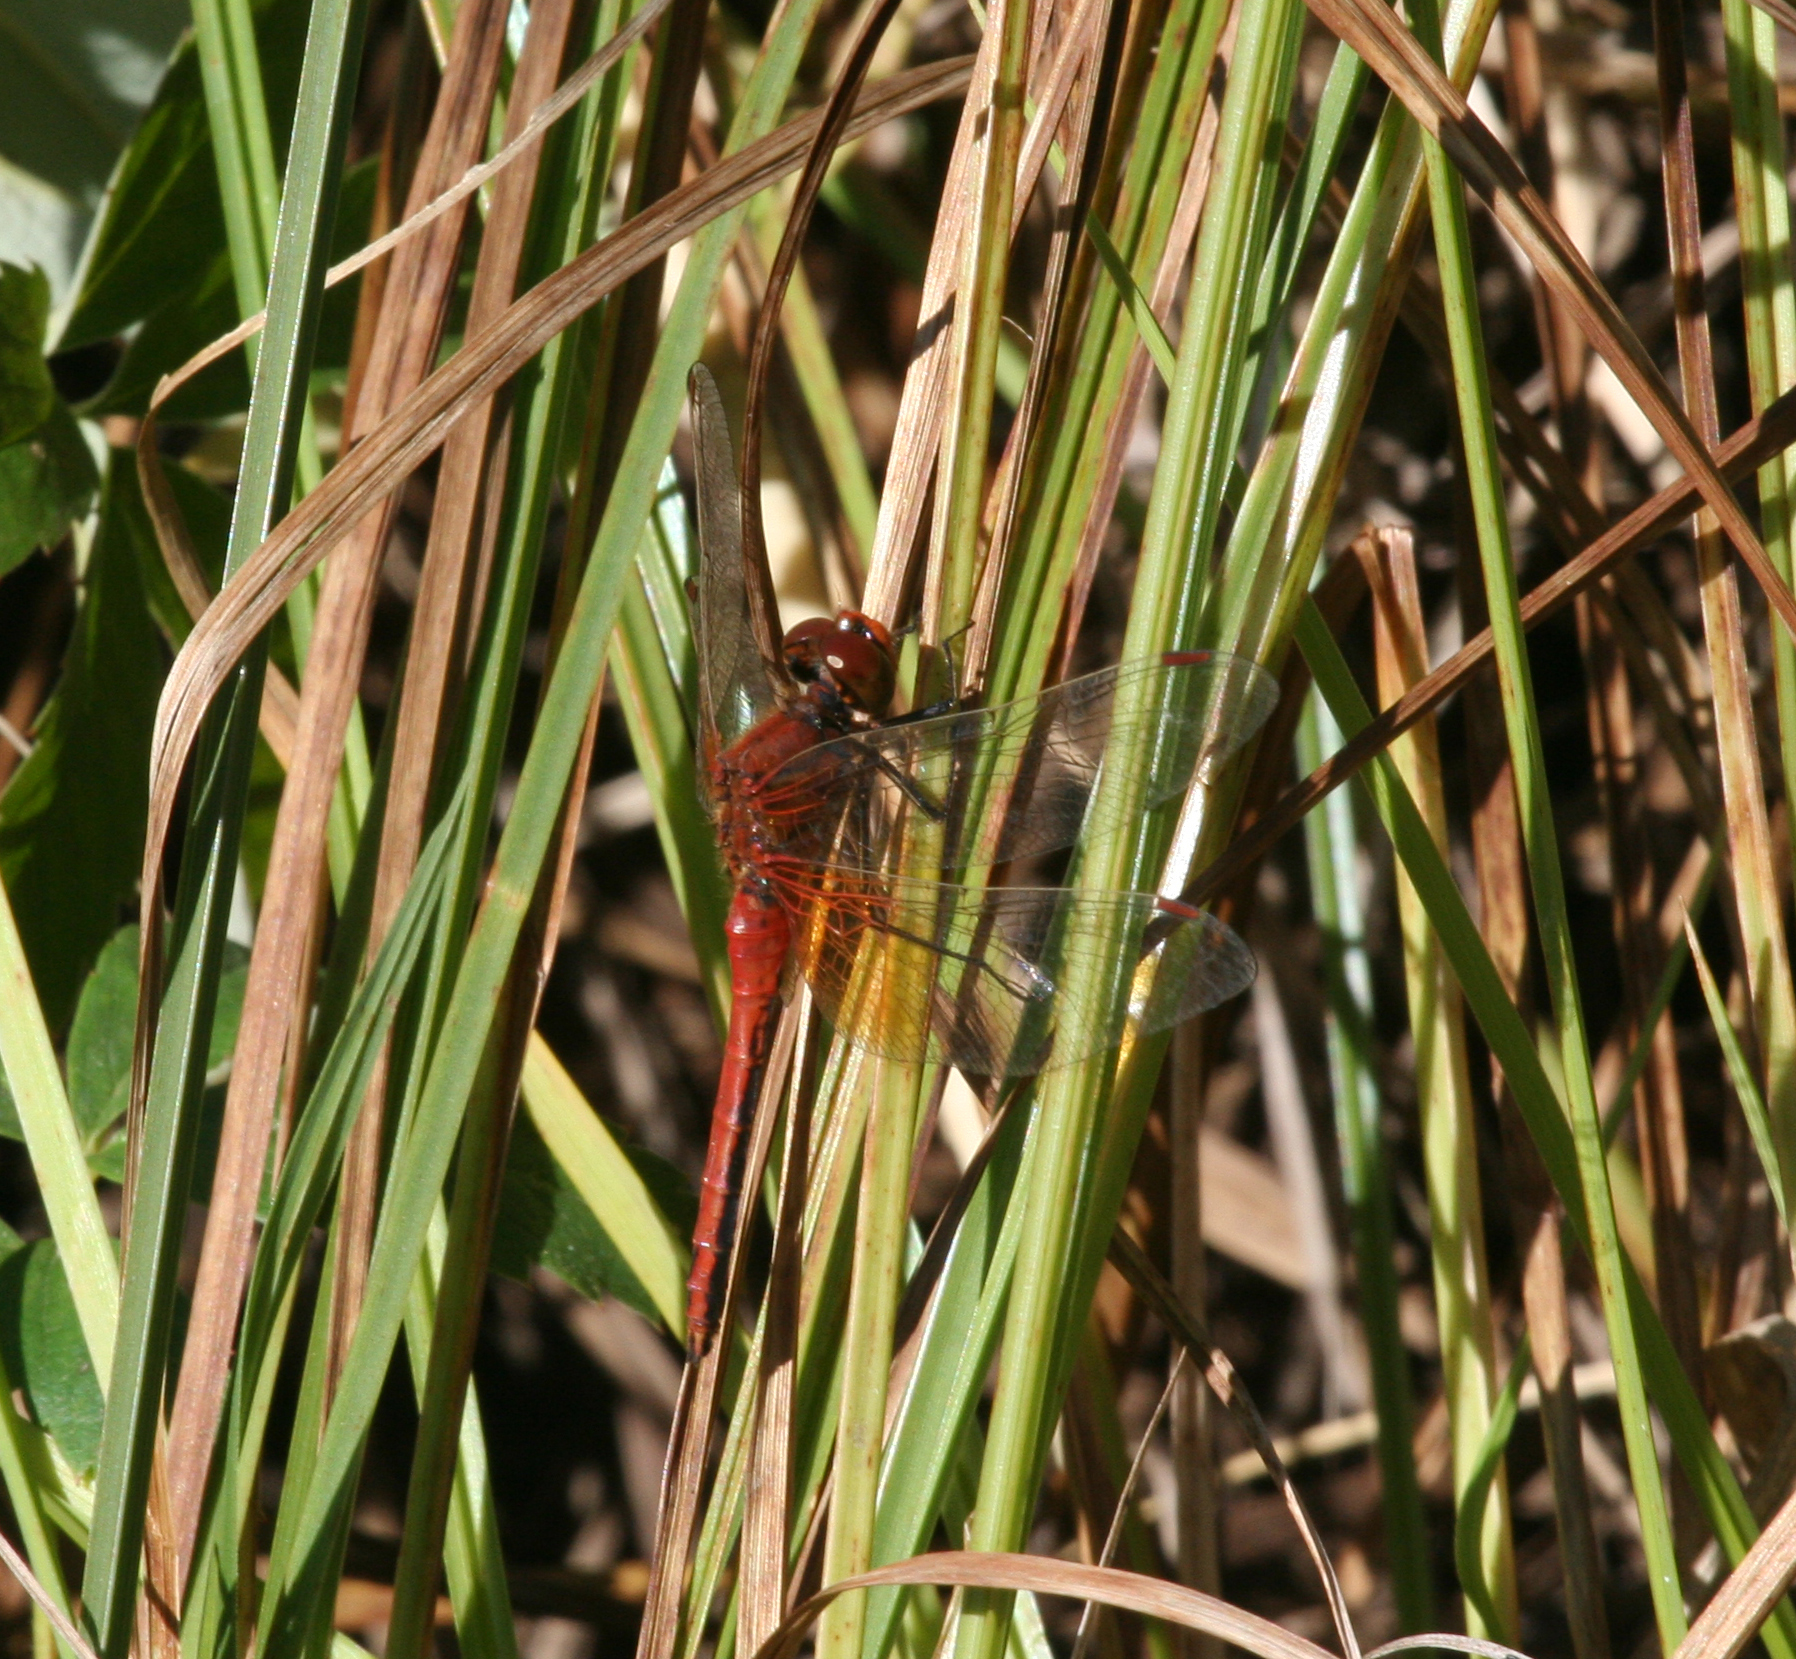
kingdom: Animalia
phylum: Arthropoda
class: Insecta
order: Odonata
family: Libellulidae
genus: Sympetrum
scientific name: Sympetrum flaveolum
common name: Yellow-winged darter
